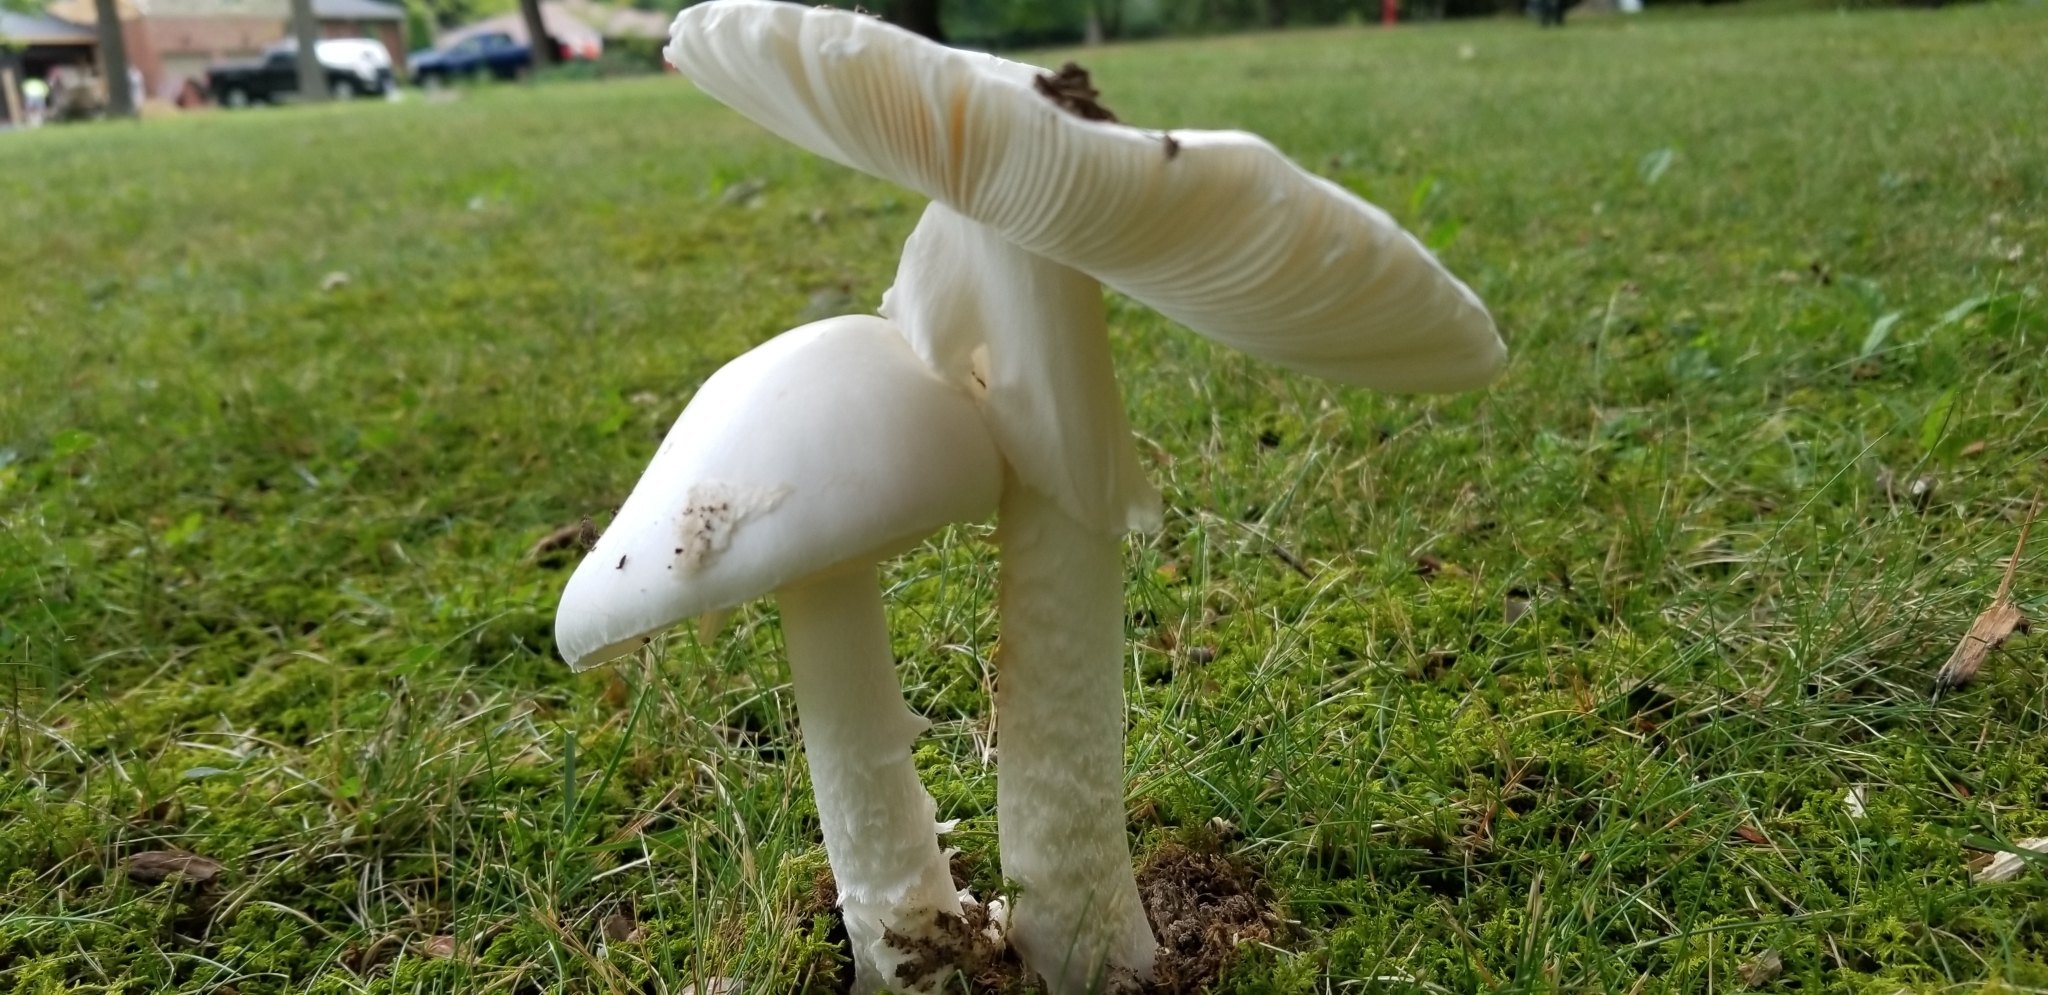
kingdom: Fungi
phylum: Basidiomycota
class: Agaricomycetes
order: Agaricales
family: Amanitaceae
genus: Amanita
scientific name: Amanita bisporigera
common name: Eastern north american destroying angel
